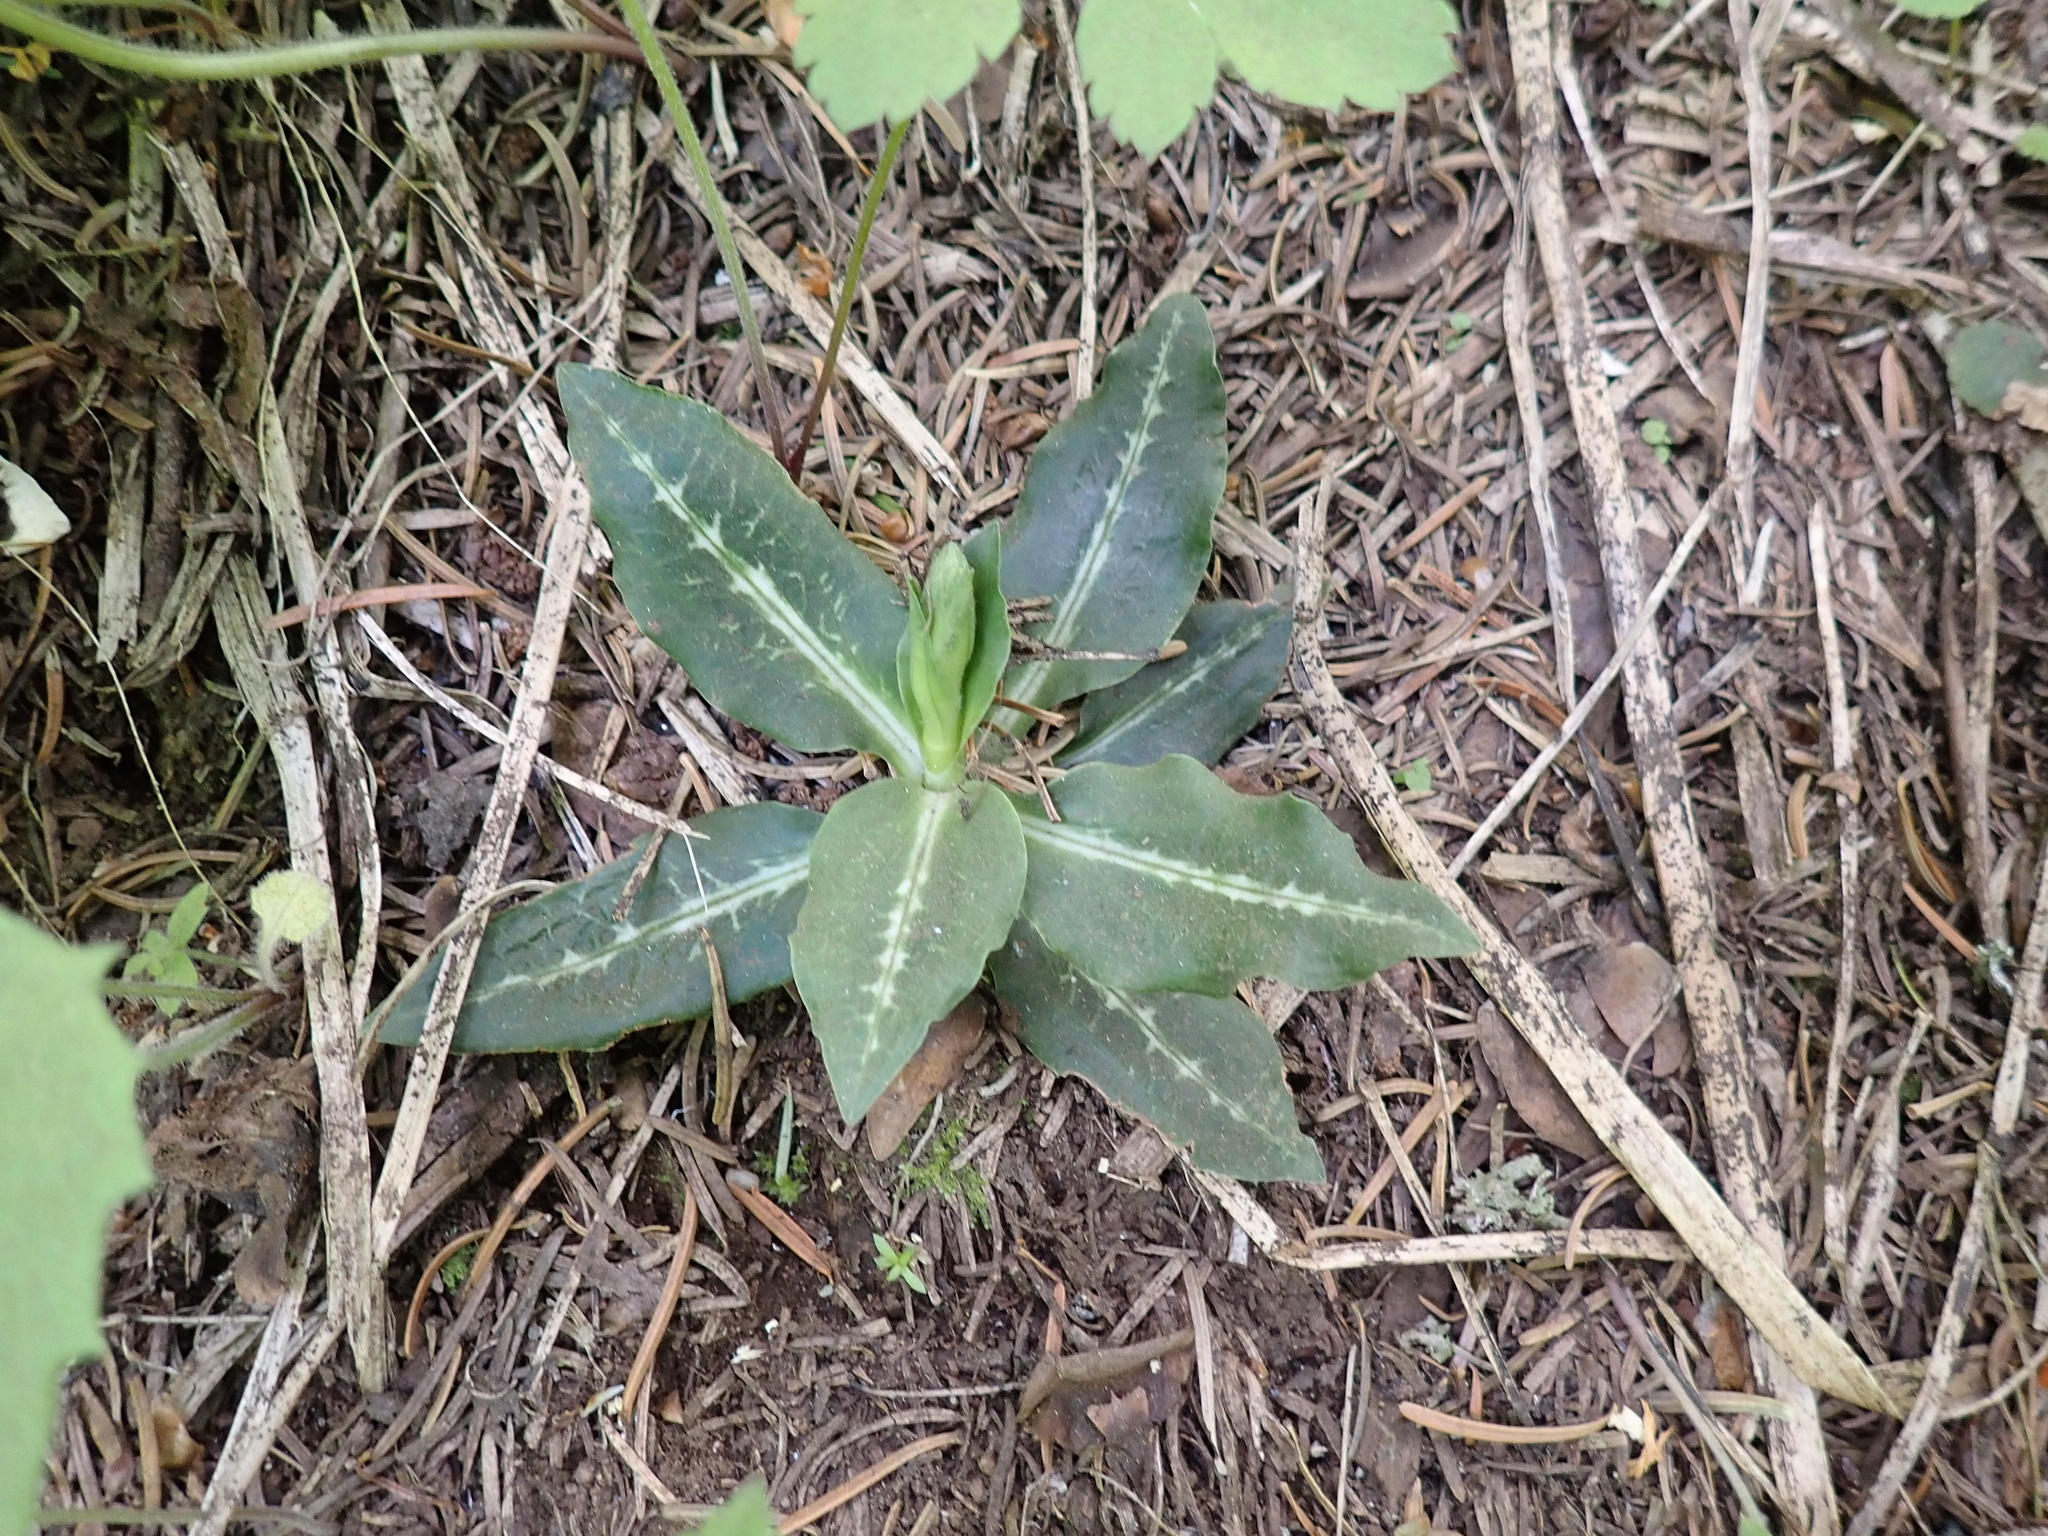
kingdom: Plantae
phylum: Tracheophyta
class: Liliopsida
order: Asparagales
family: Orchidaceae
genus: Goodyera
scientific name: Goodyera oblongifolia
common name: Giant rattlesnake-plantain
